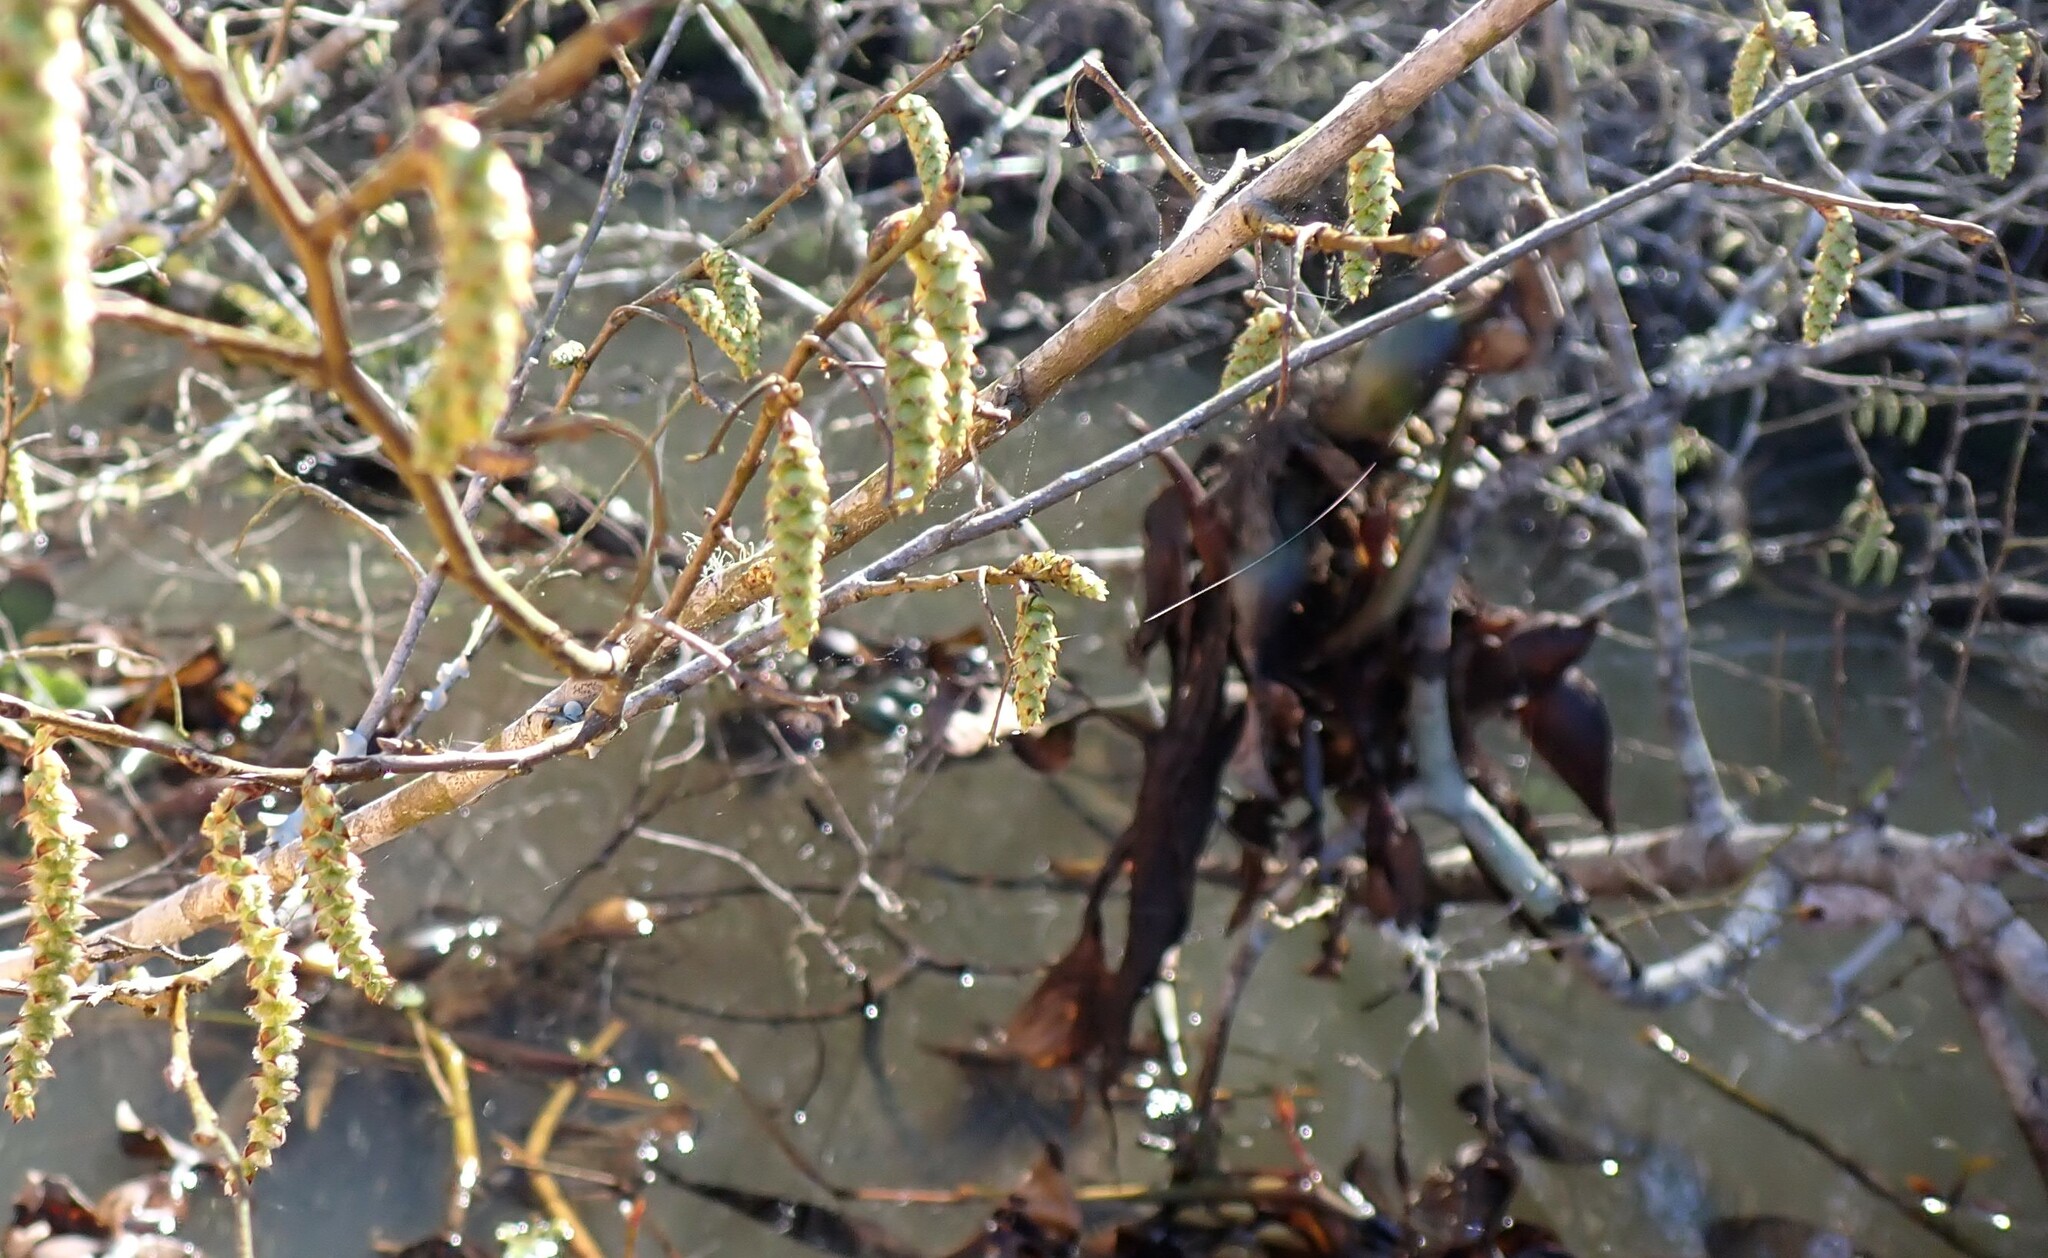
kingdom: Plantae
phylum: Tracheophyta
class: Magnoliopsida
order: Fagales
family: Betulaceae
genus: Carpinus
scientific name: Carpinus caroliniana
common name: American hornbeam
